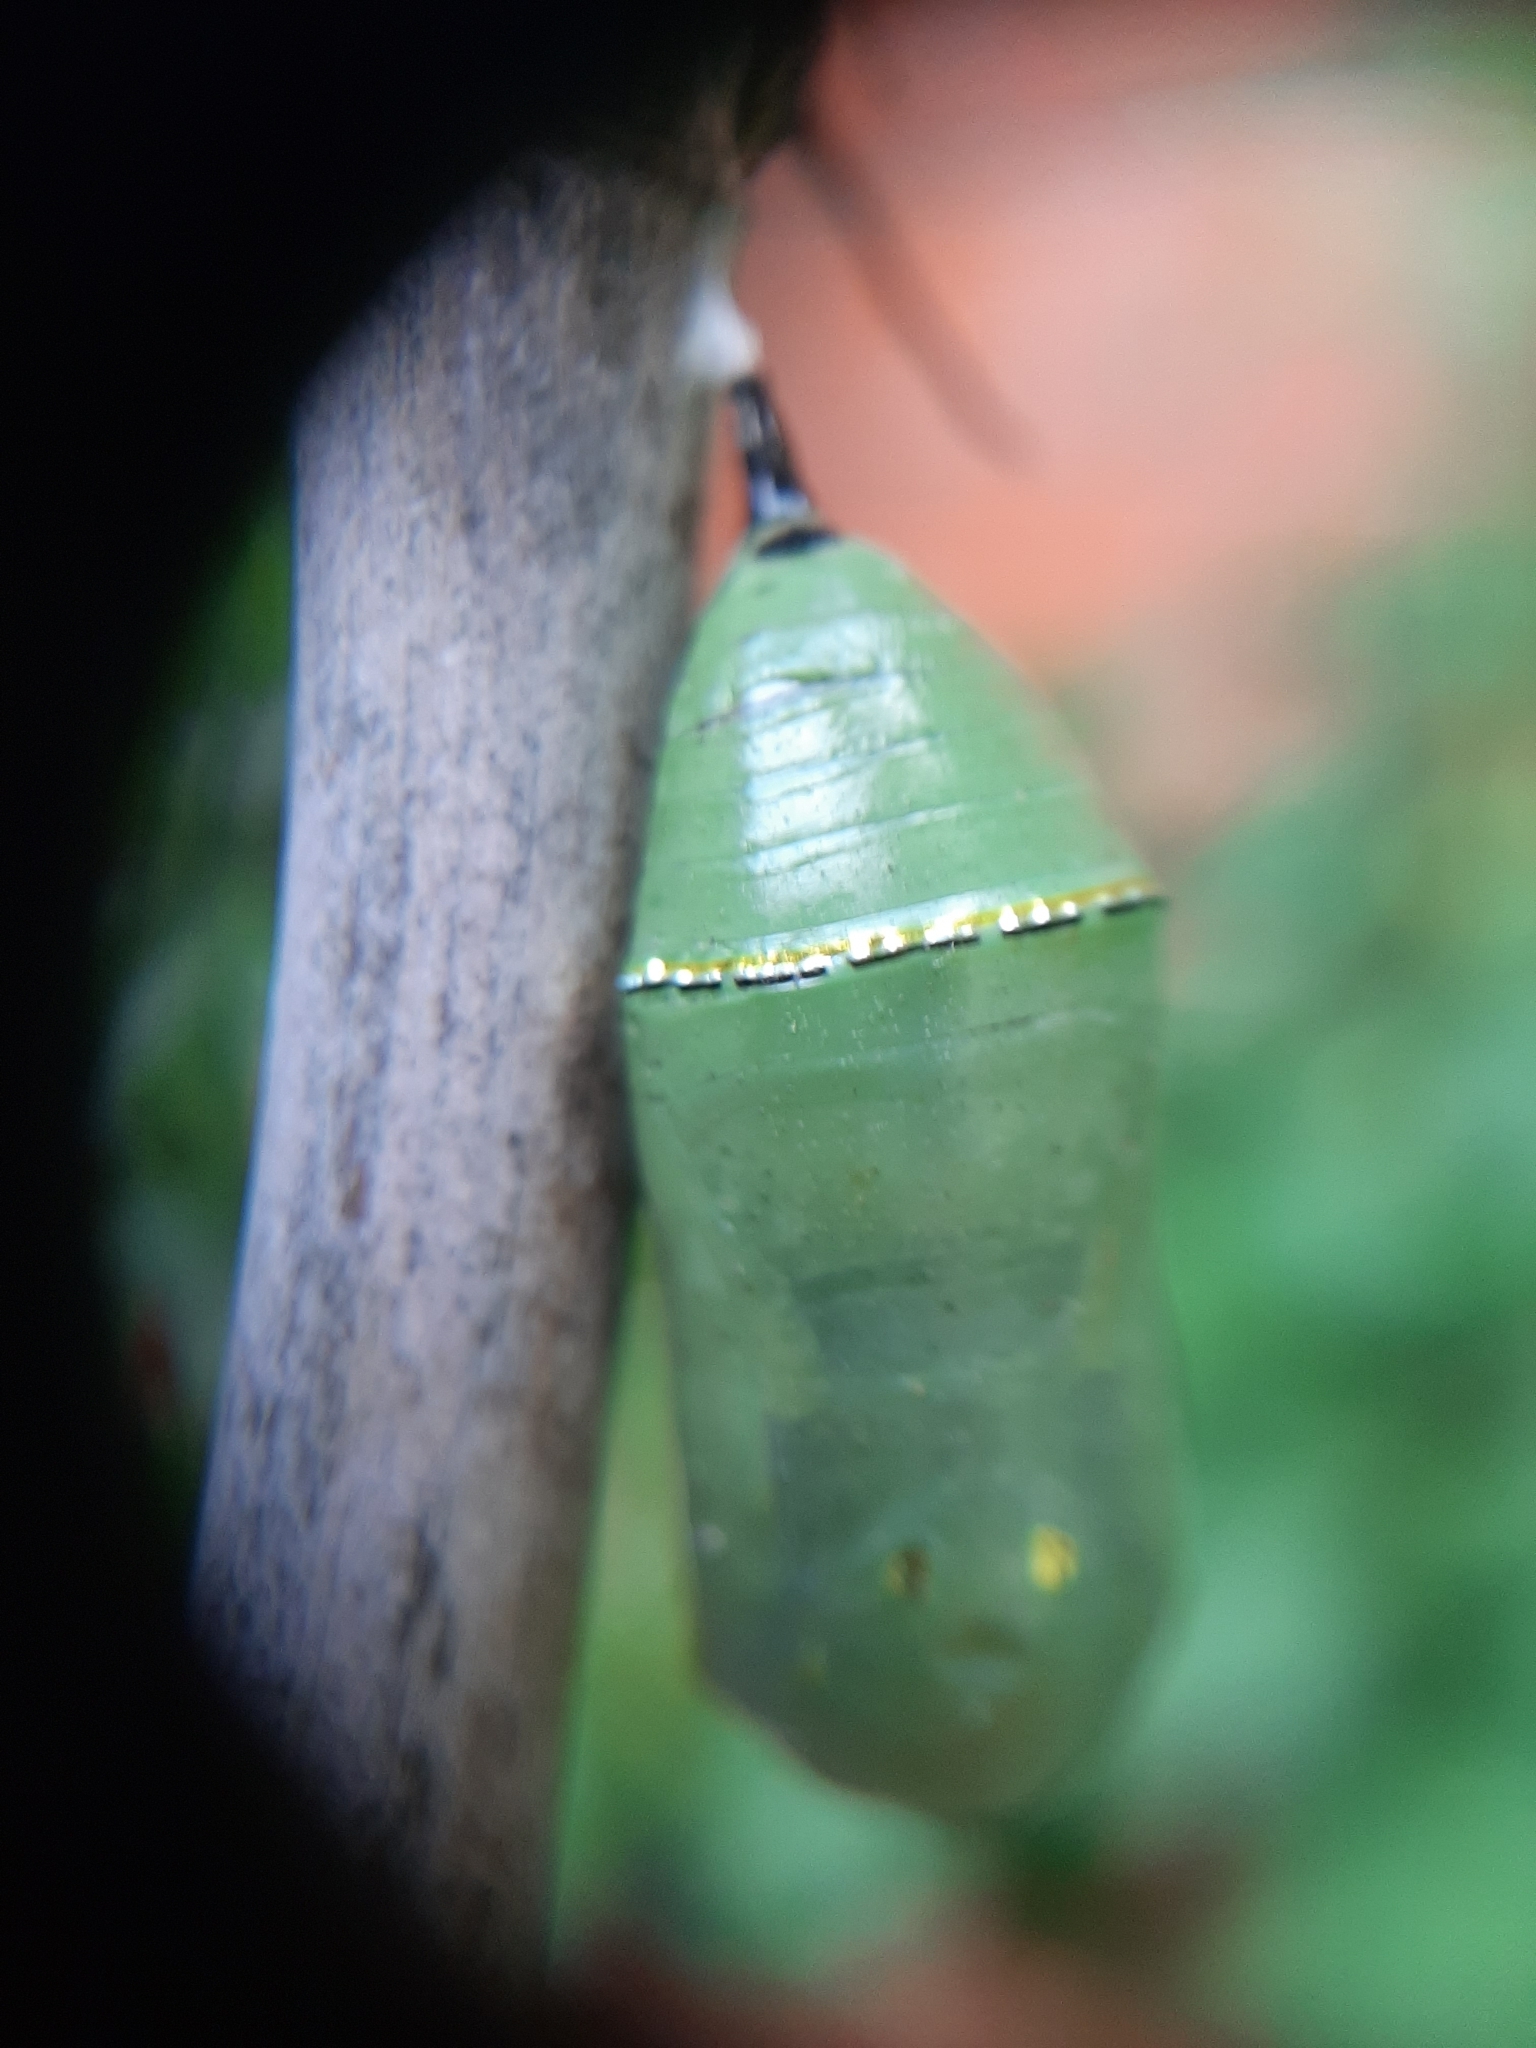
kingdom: Animalia
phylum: Arthropoda
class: Insecta
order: Lepidoptera
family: Nymphalidae
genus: Danaus
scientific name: Danaus plexippus
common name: Monarch
